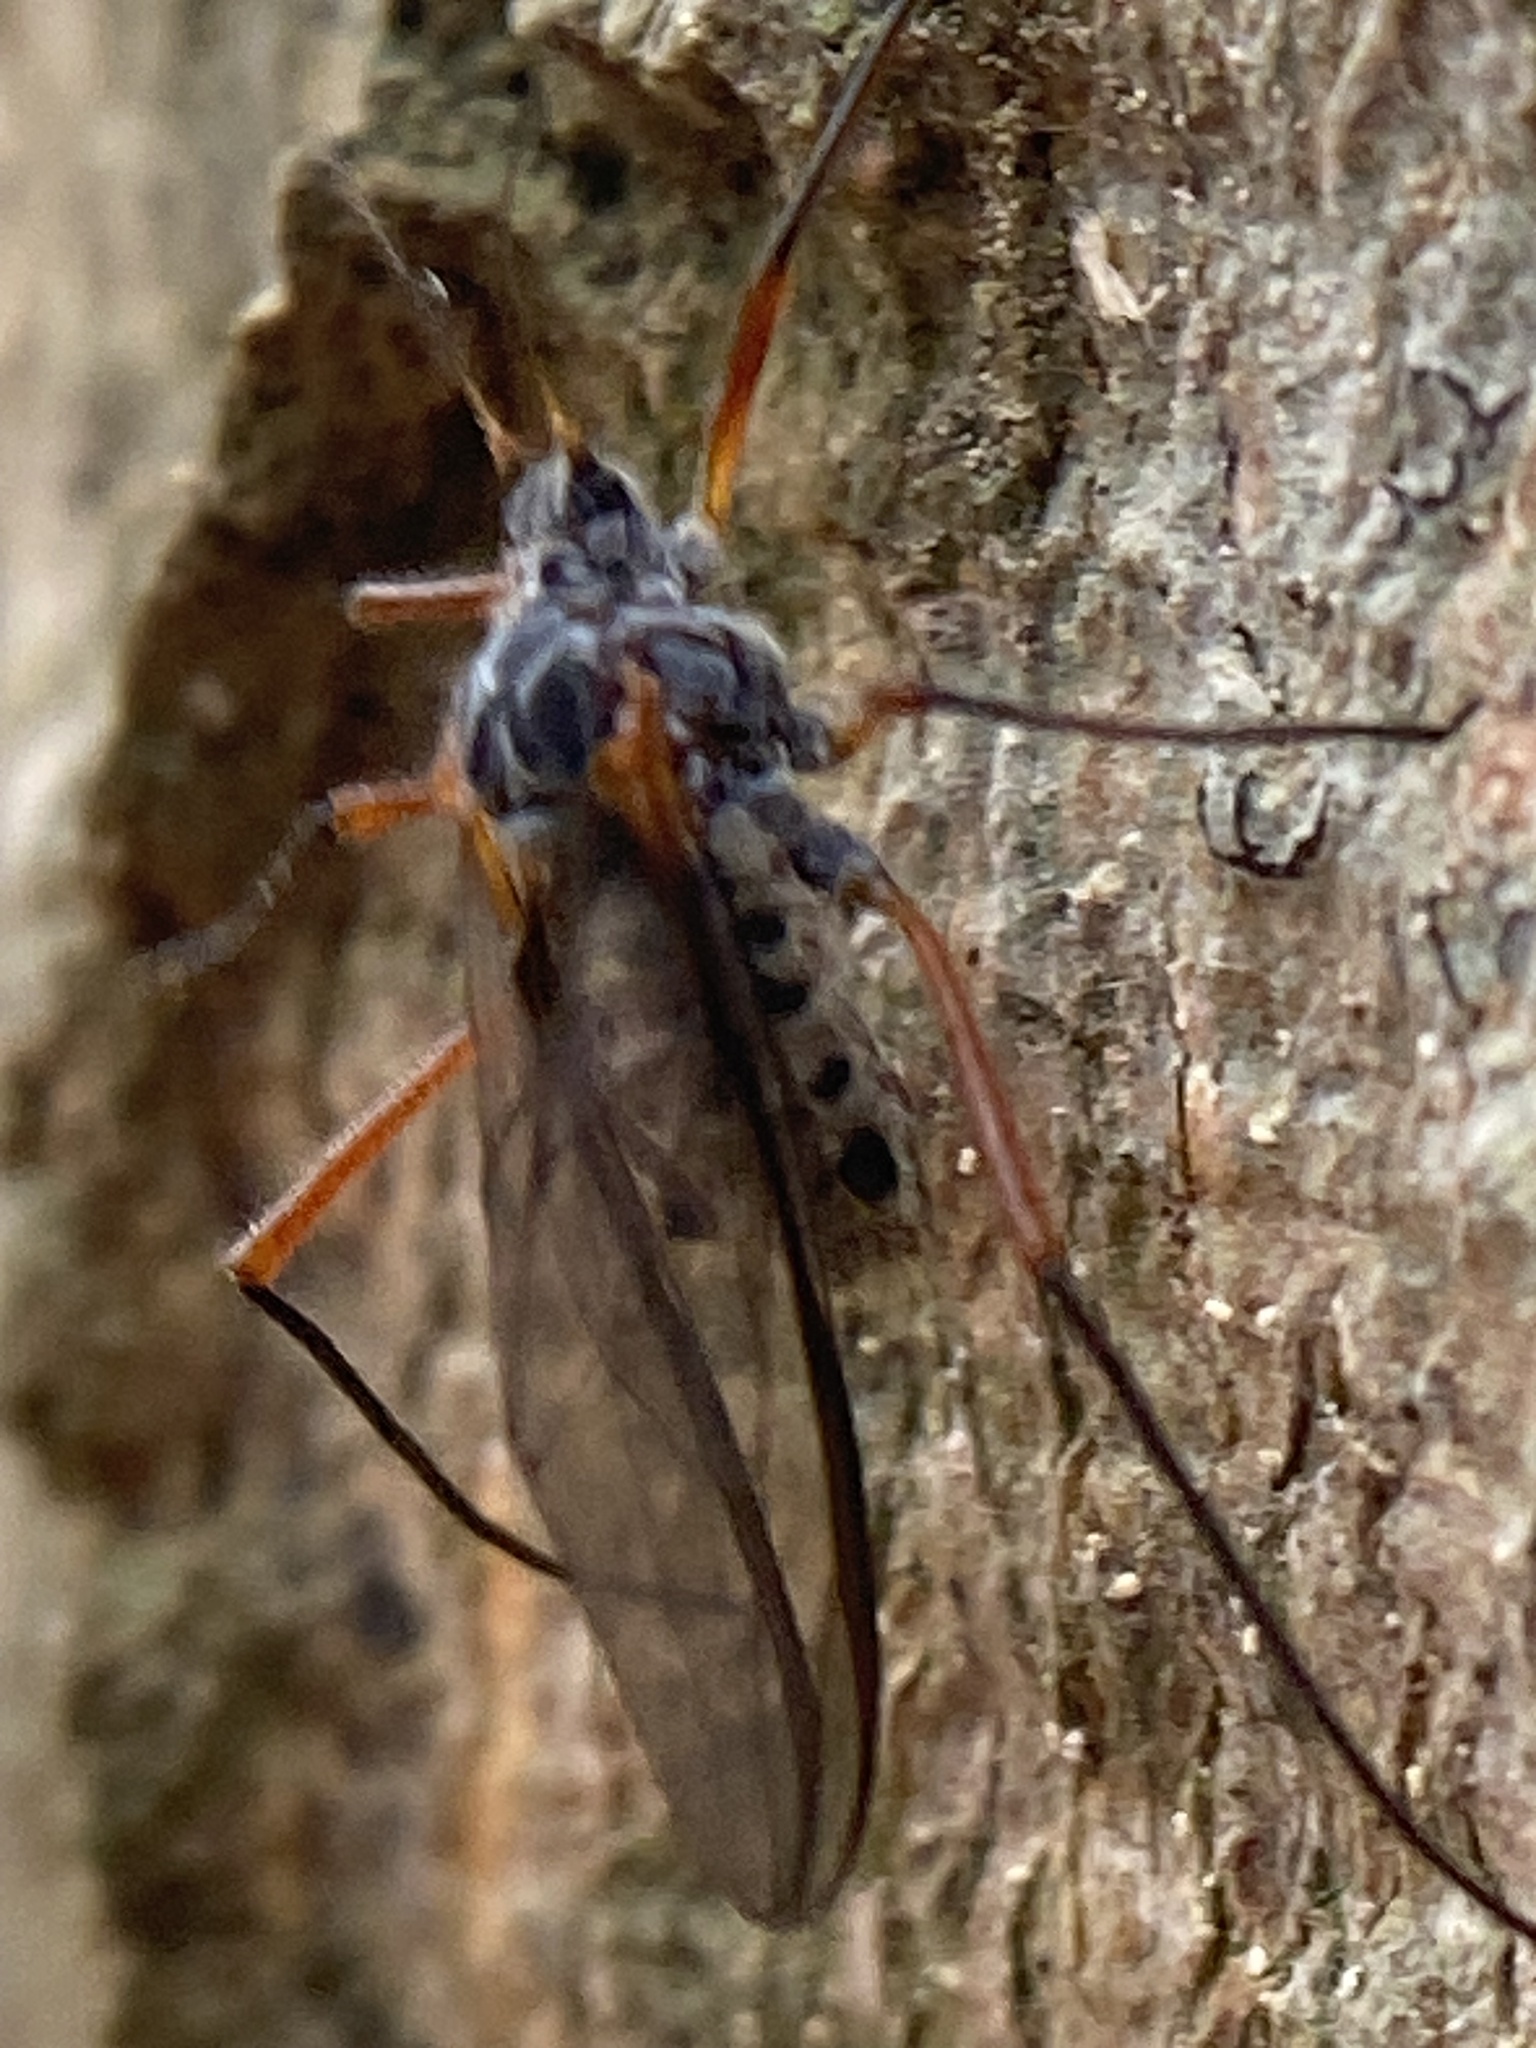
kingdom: Animalia
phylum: Arthropoda
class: Insecta
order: Hemiptera
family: Aphididae
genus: Longistigma
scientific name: Longistigma caryae
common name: Giant bark aphid
